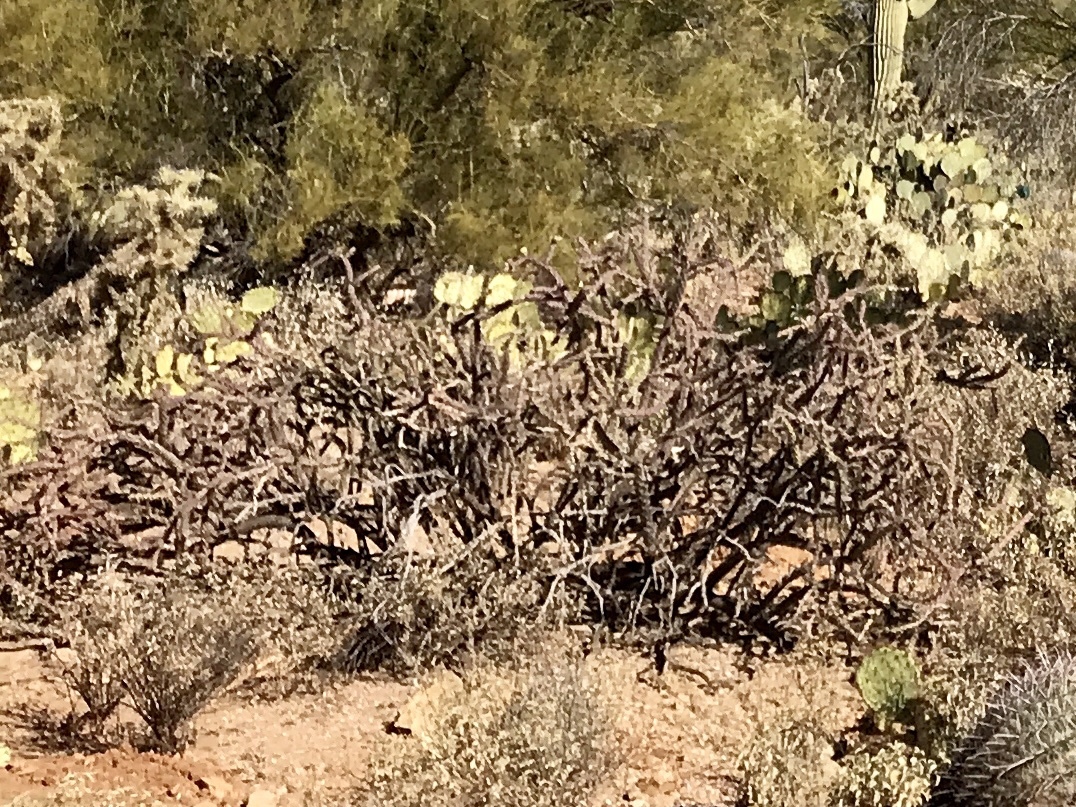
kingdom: Plantae
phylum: Tracheophyta
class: Magnoliopsida
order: Caryophyllales
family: Cactaceae
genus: Cylindropuntia
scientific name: Cylindropuntia thurberi
